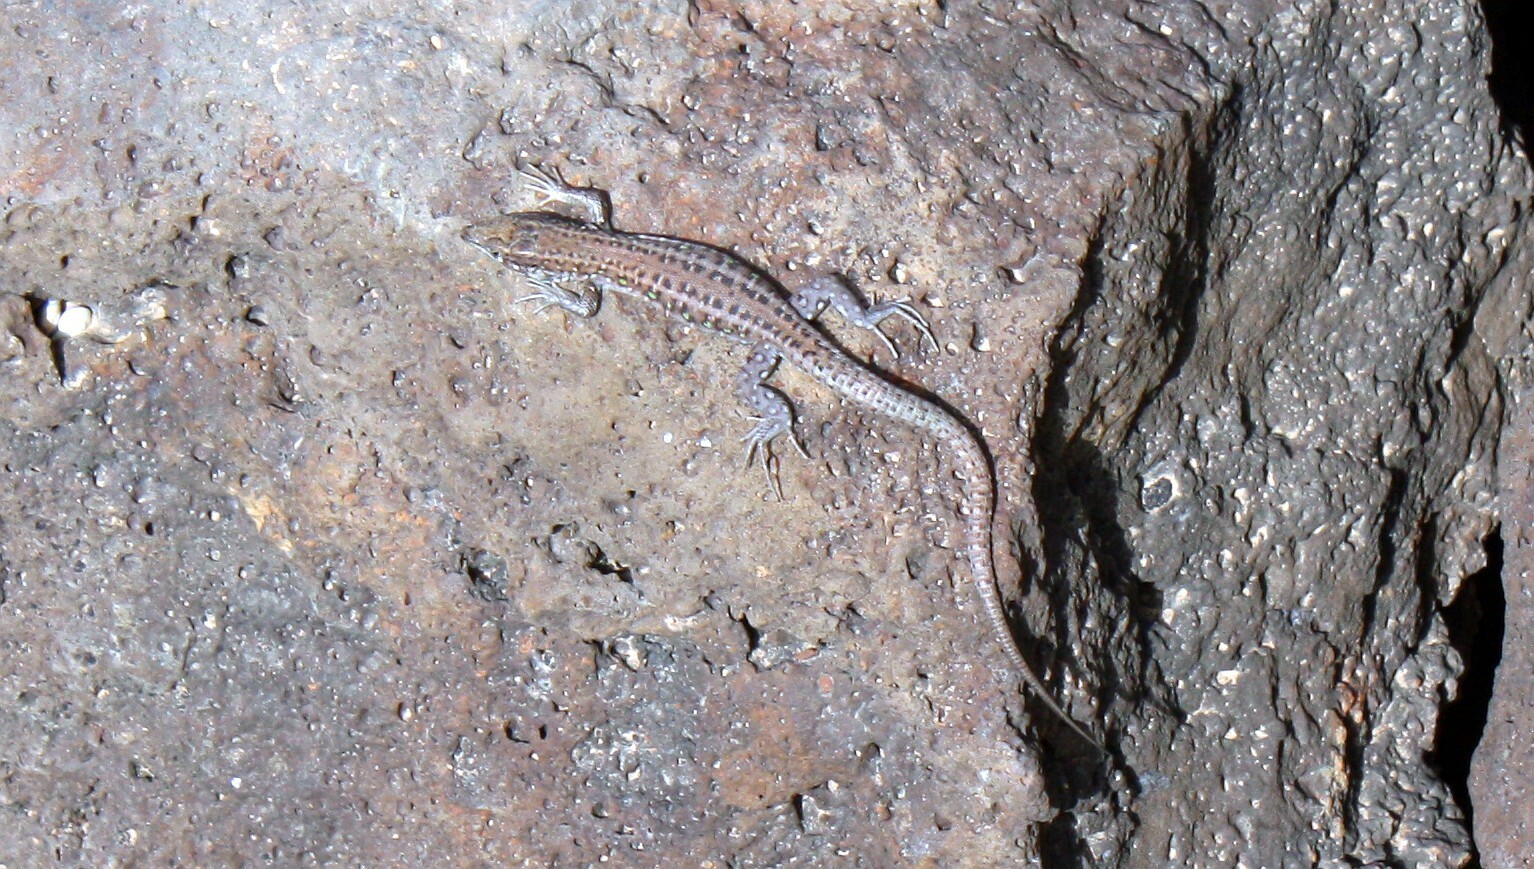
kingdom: Animalia
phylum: Chordata
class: Squamata
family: Lacertidae
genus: Gallotia
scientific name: Gallotia atlantica
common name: Atlantic lizard
